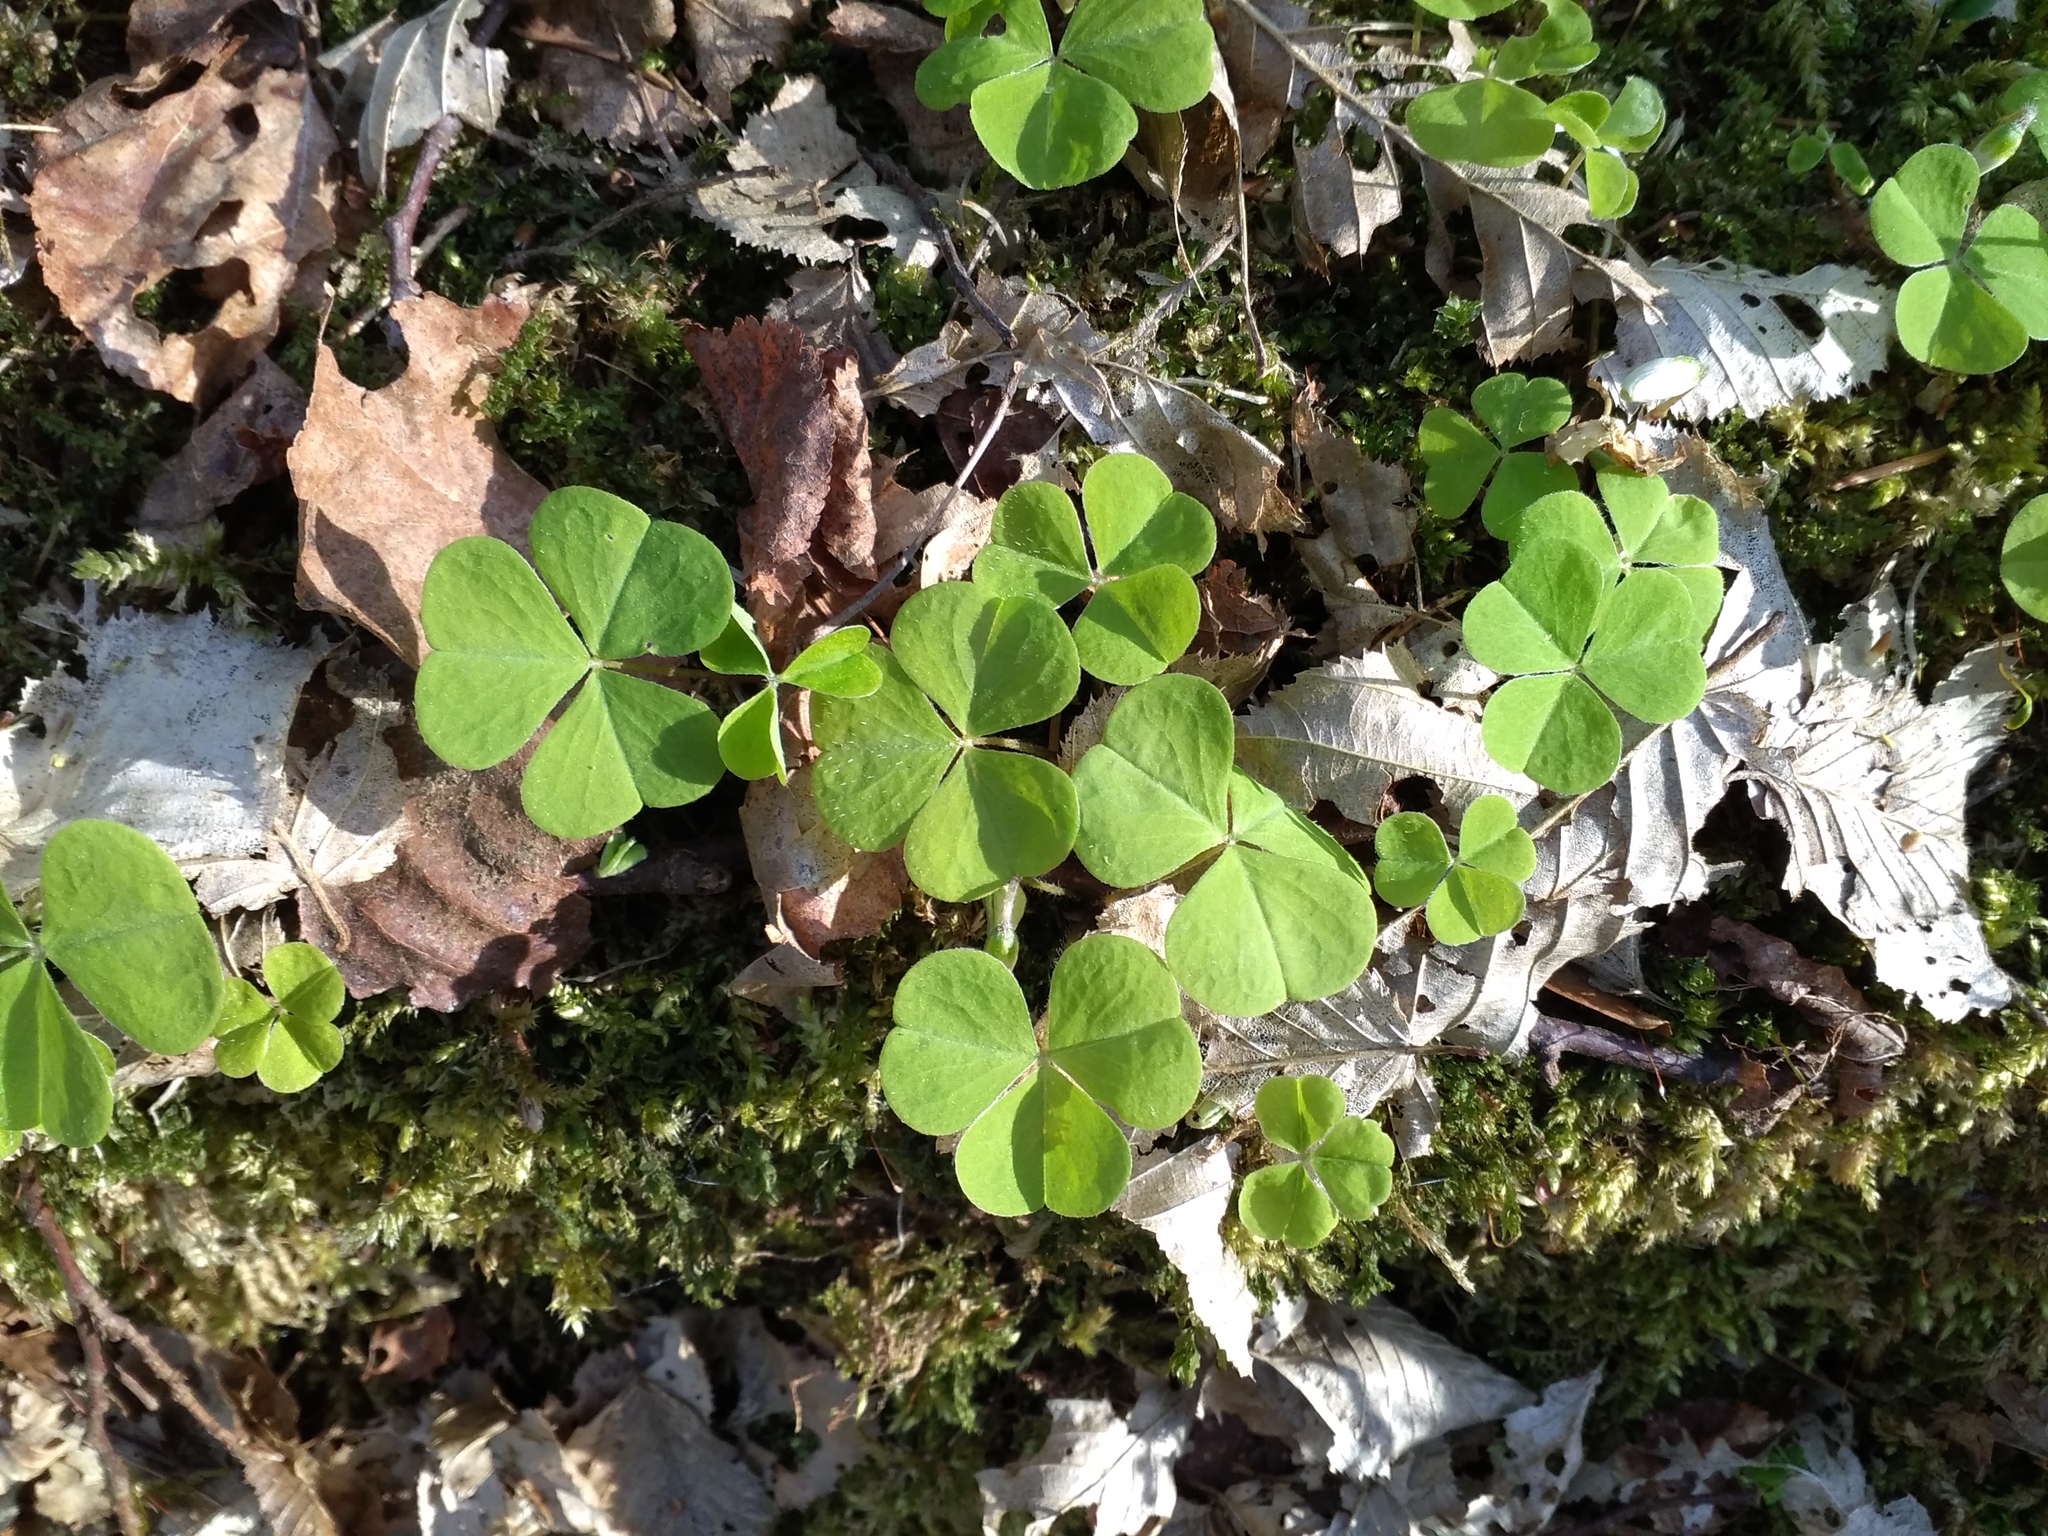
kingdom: Plantae
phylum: Tracheophyta
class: Magnoliopsida
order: Oxalidales
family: Oxalidaceae
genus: Oxalis
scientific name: Oxalis acetosella
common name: Wood-sorrel
